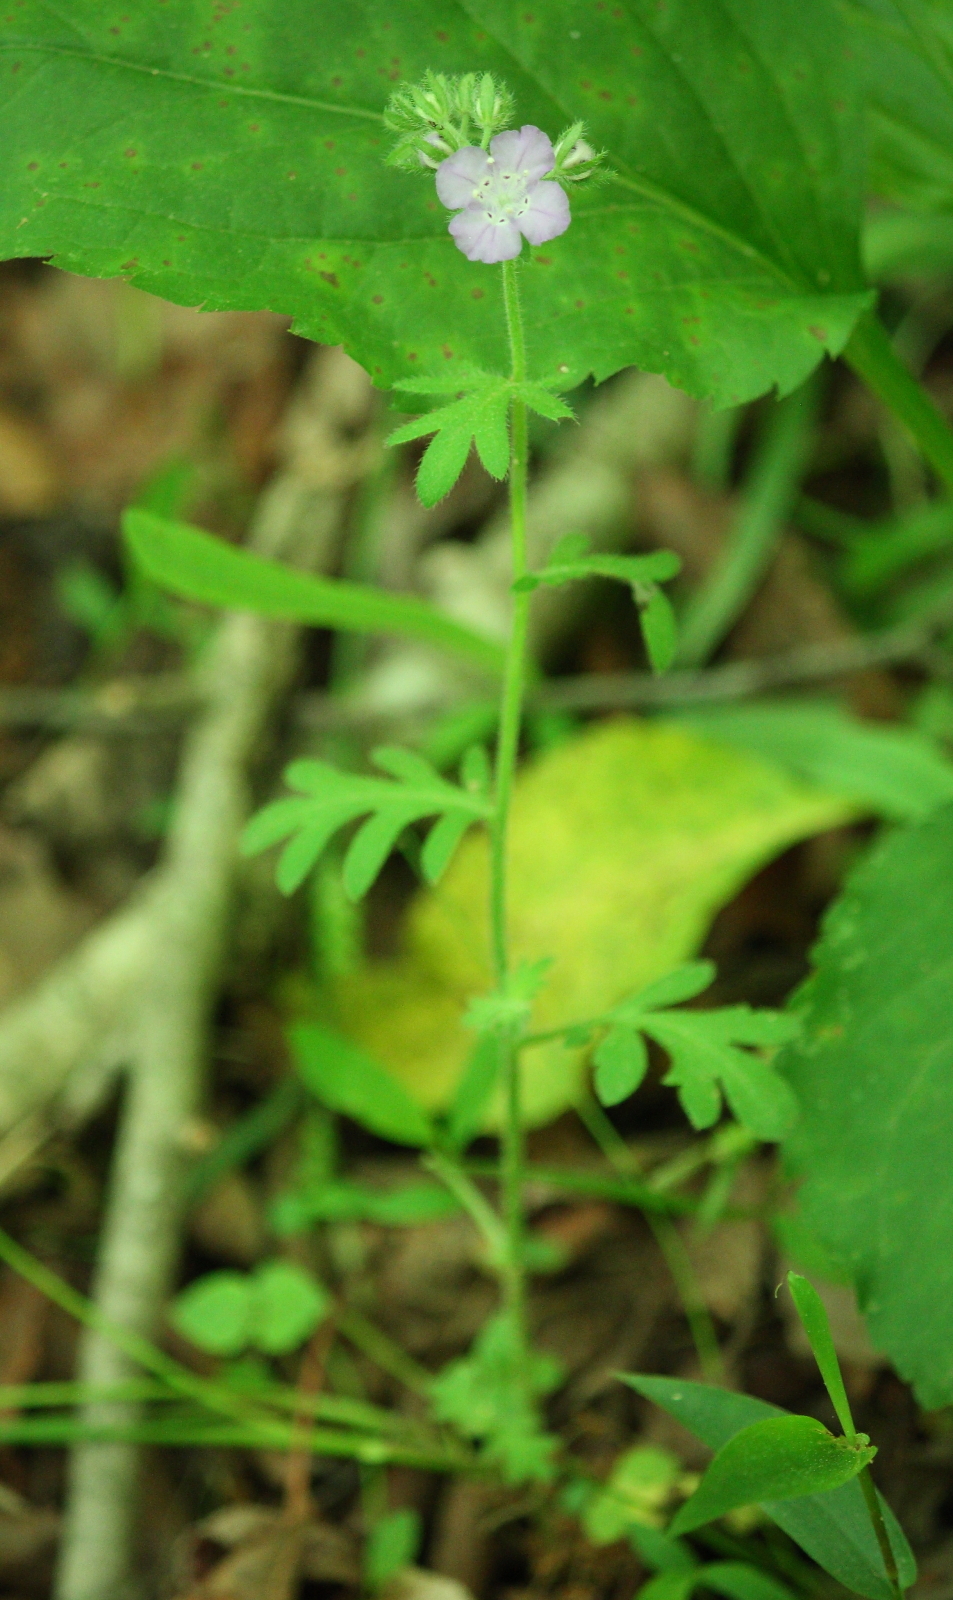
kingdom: Plantae
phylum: Tracheophyta
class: Magnoliopsida
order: Boraginales
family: Hydrophyllaceae
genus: Phacelia
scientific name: Phacelia hirsuta
